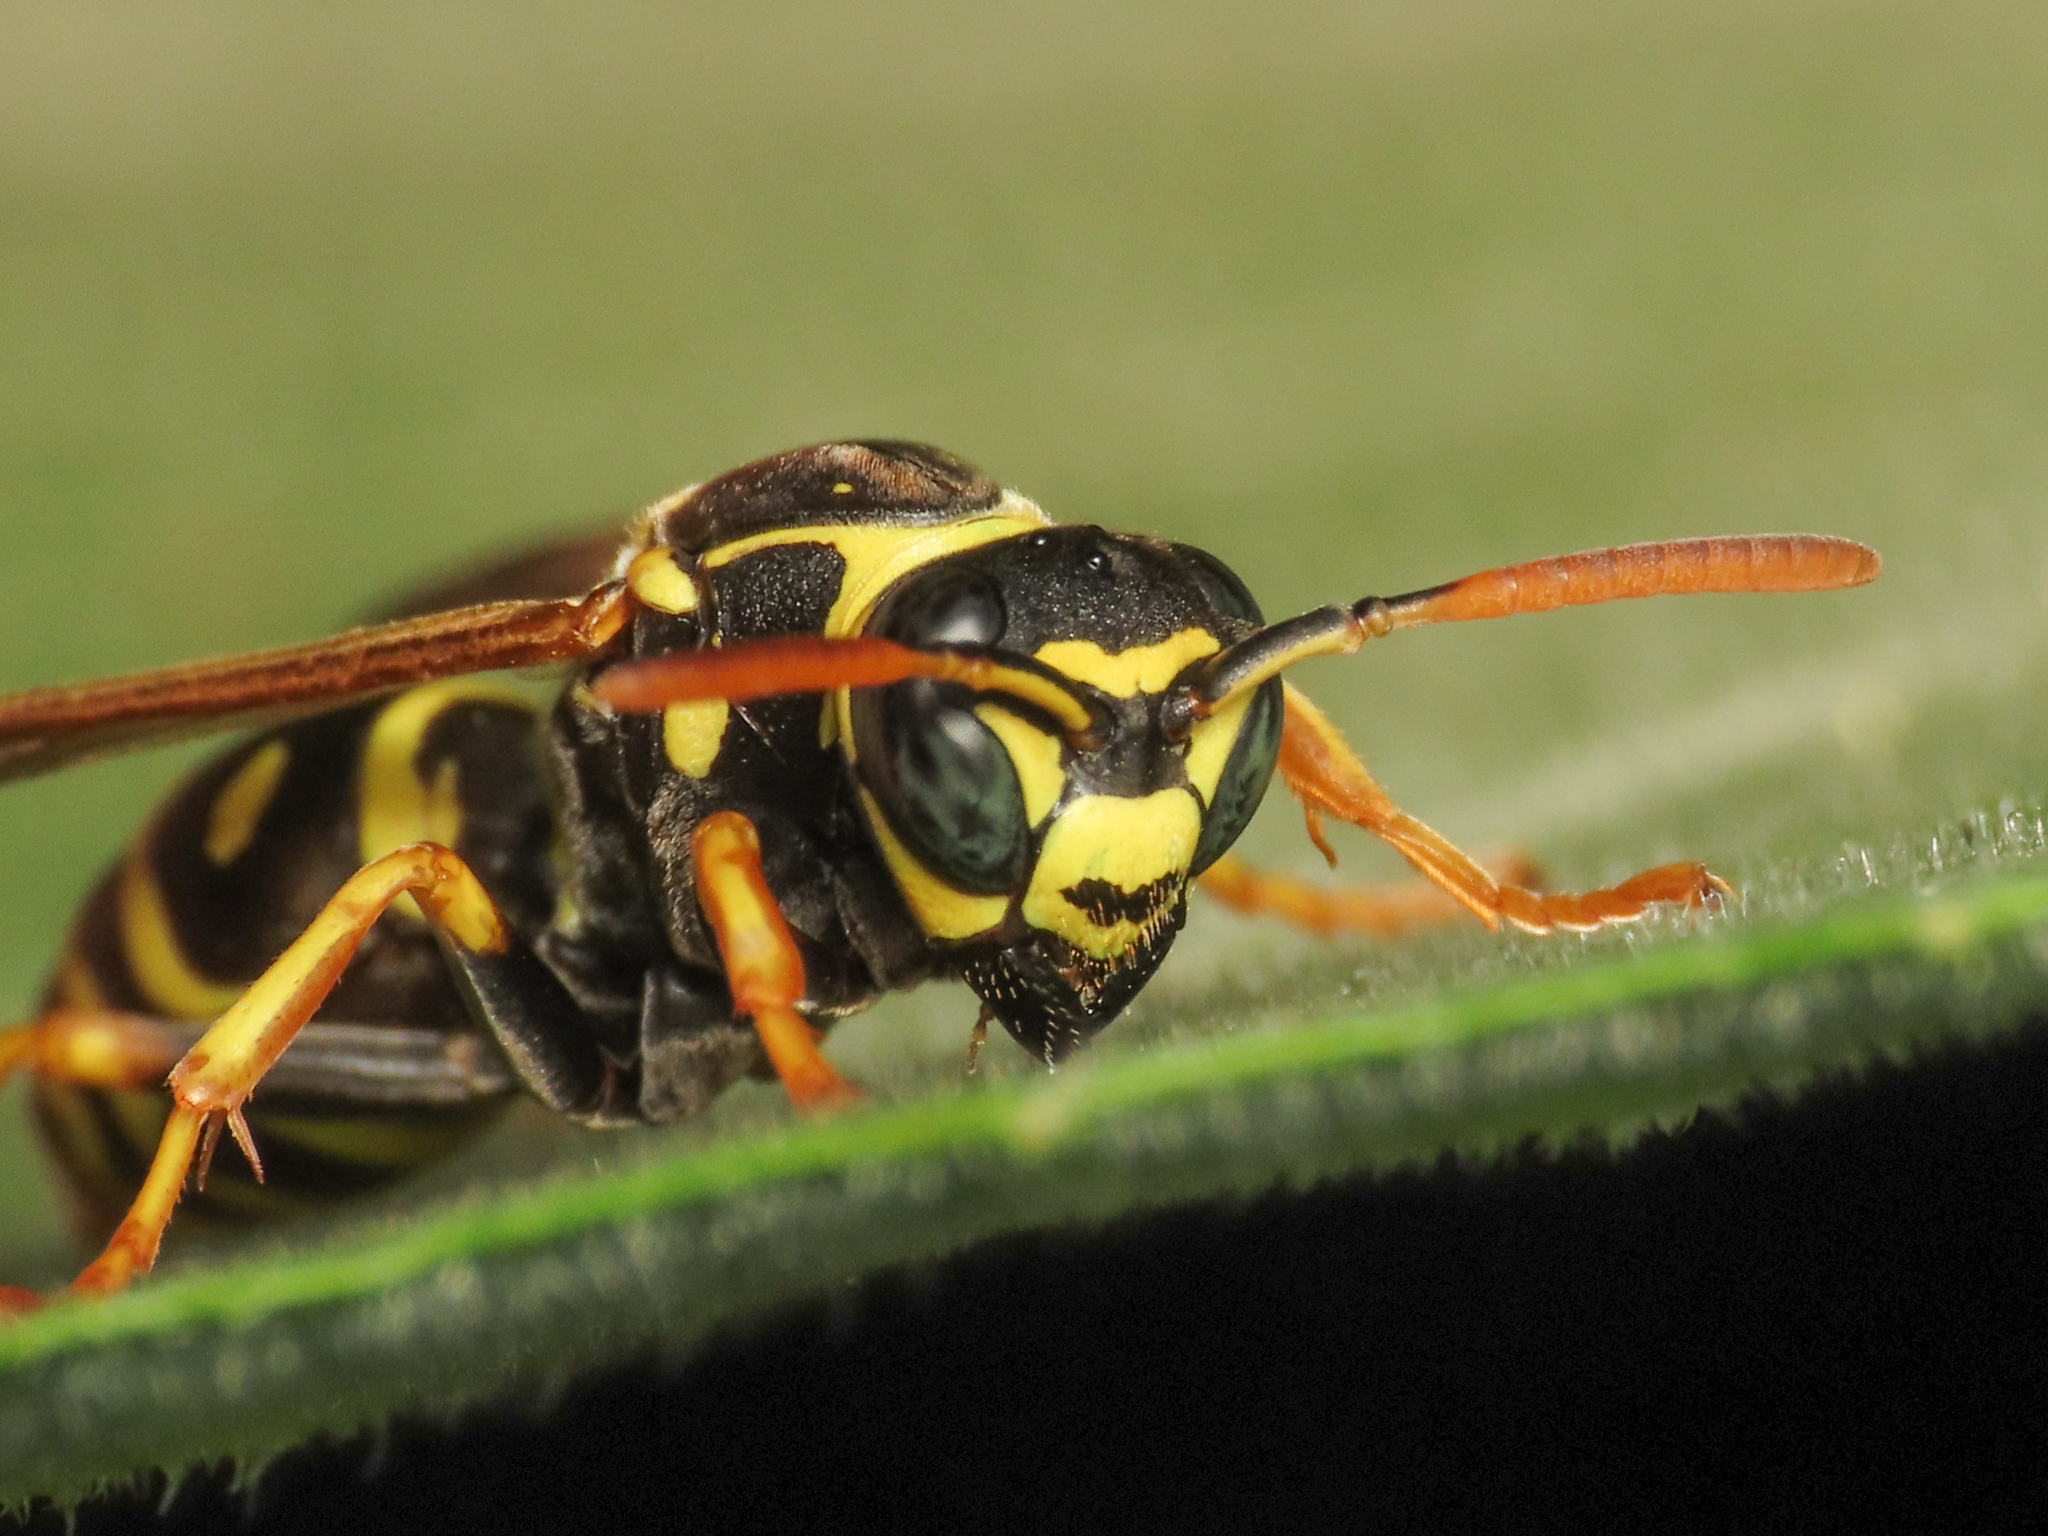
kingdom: Animalia
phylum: Arthropoda
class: Insecta
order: Hymenoptera
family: Eumenidae
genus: Polistes
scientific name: Polistes dominula
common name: Paper wasp
